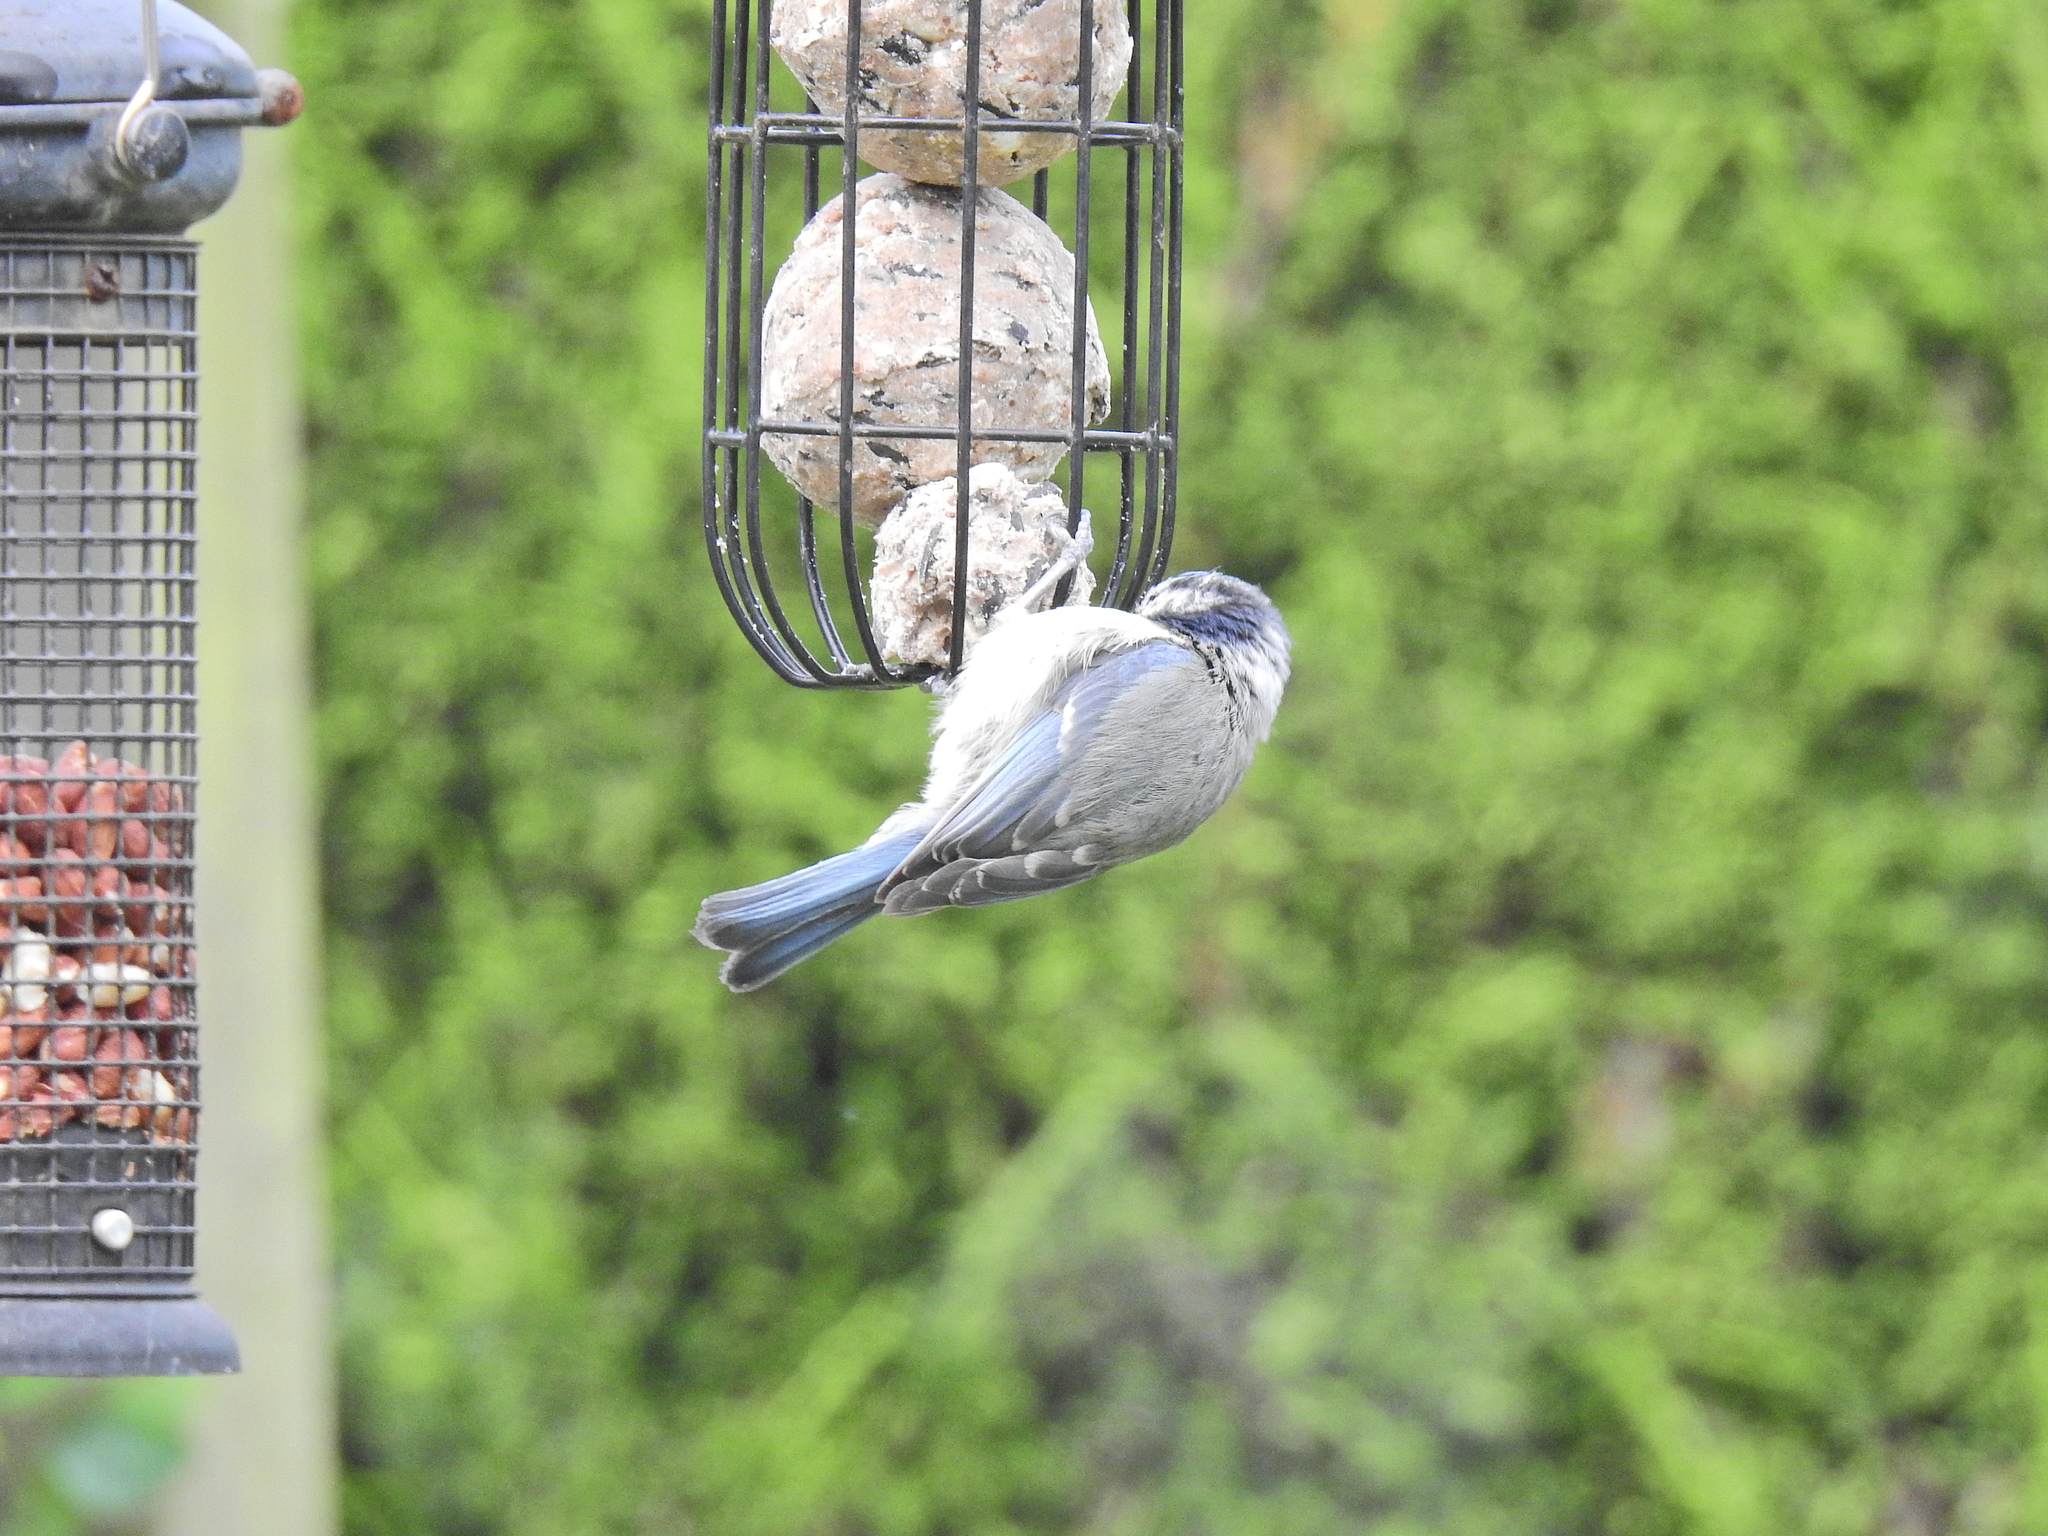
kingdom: Animalia
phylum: Chordata
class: Aves
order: Passeriformes
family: Paridae
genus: Cyanistes
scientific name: Cyanistes caeruleus
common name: Eurasian blue tit
